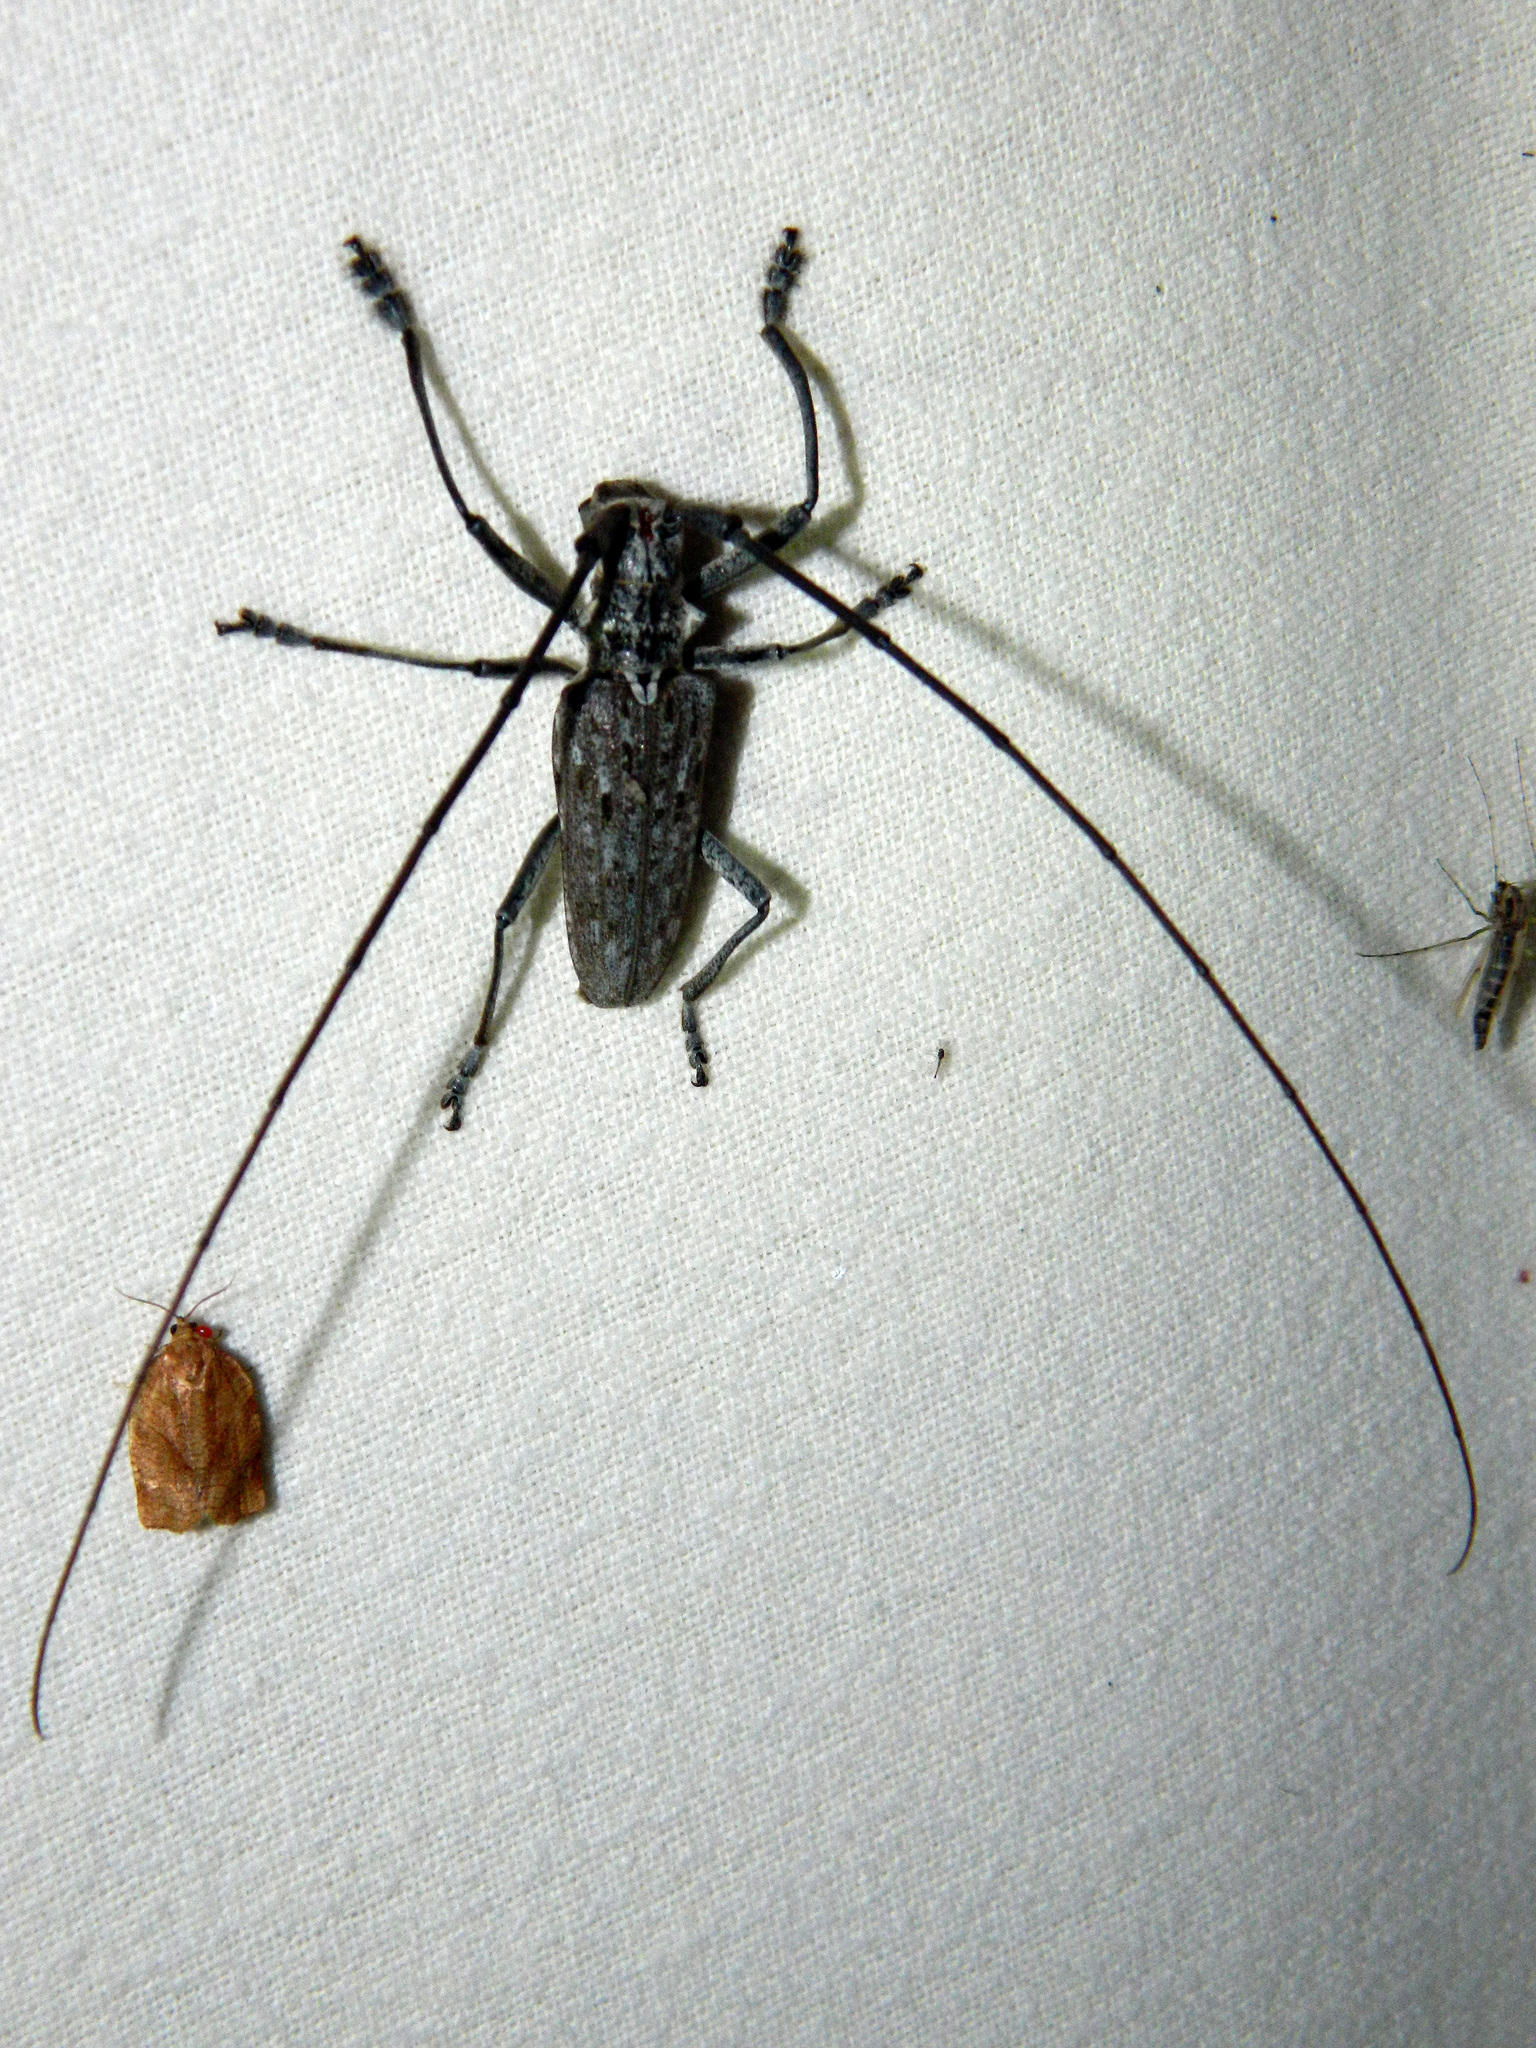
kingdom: Animalia
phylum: Arthropoda
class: Insecta
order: Coleoptera
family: Cerambycidae
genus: Monochamus
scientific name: Monochamus notatus
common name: Northeastern pine sawyer beetle
